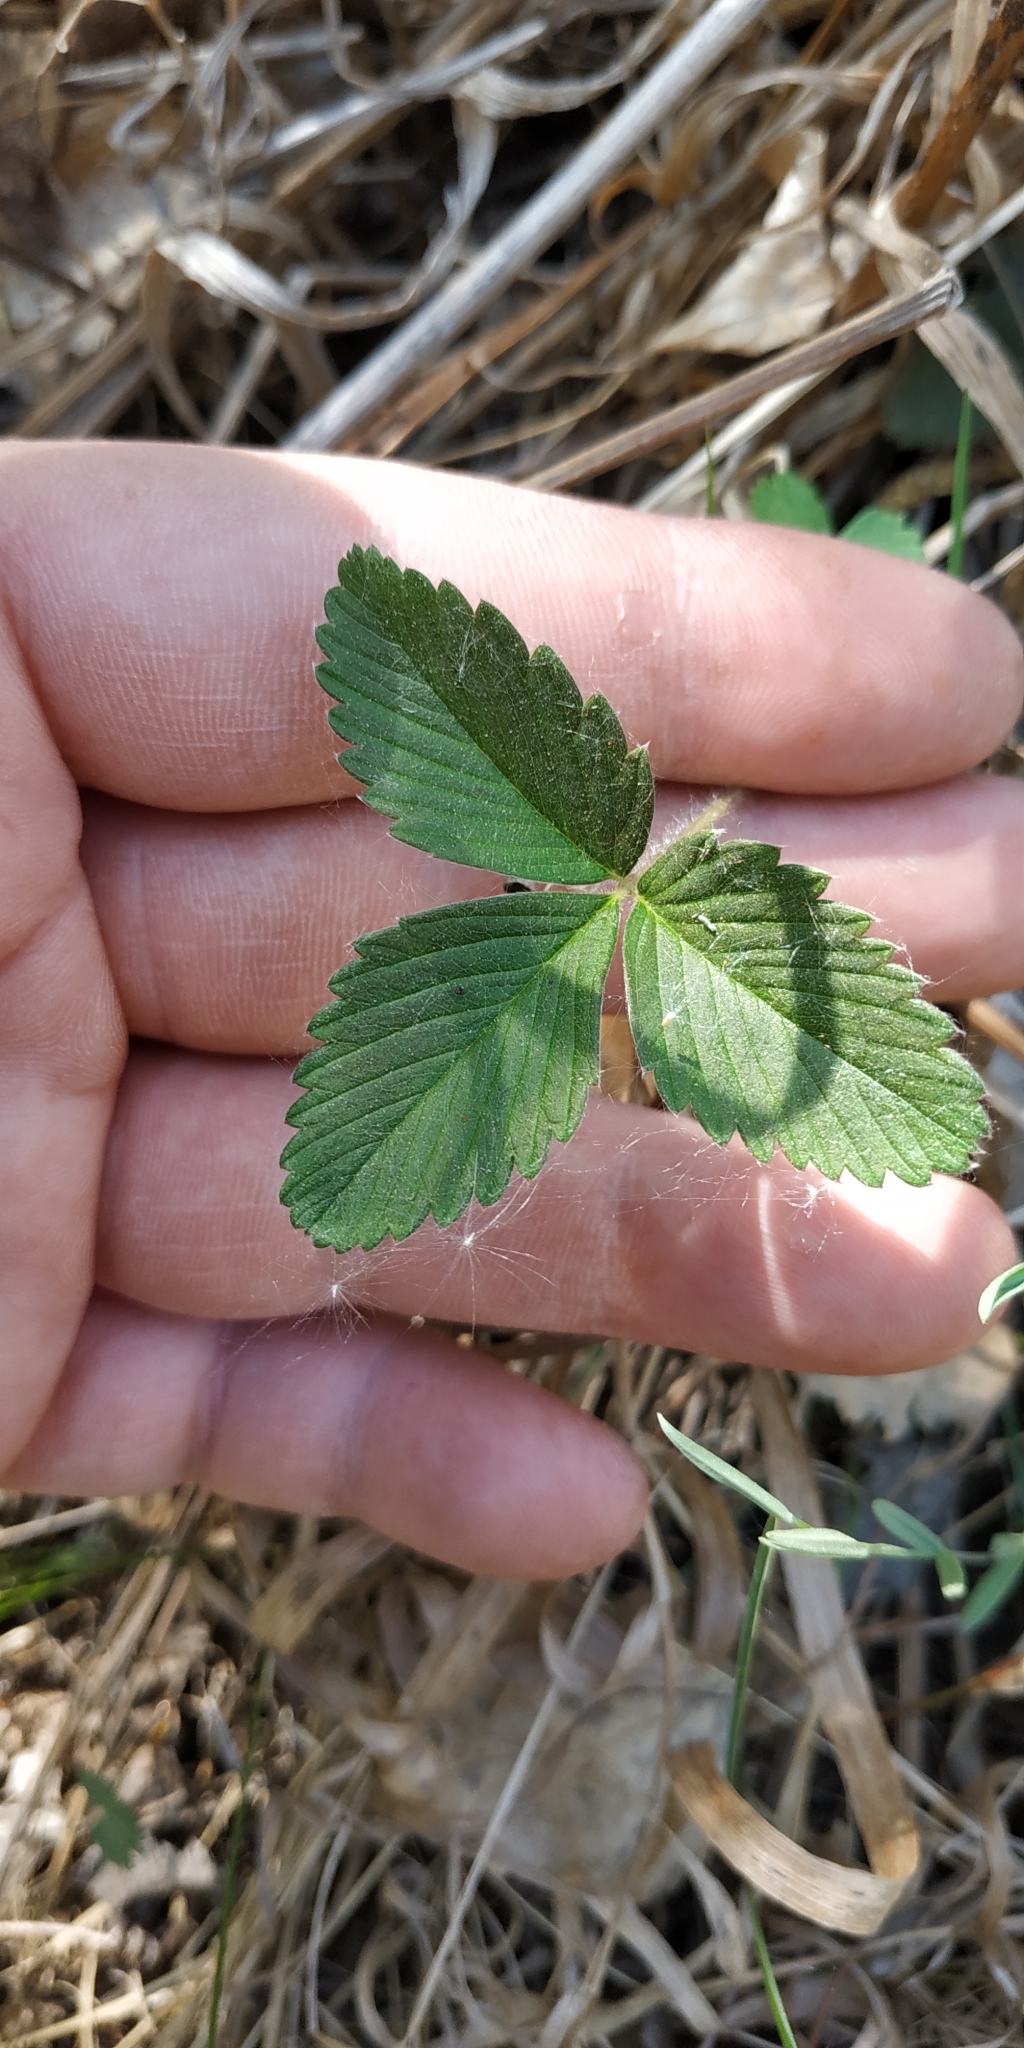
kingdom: Plantae
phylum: Tracheophyta
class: Magnoliopsida
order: Rosales
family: Rosaceae
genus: Fragaria
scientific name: Fragaria viridis
